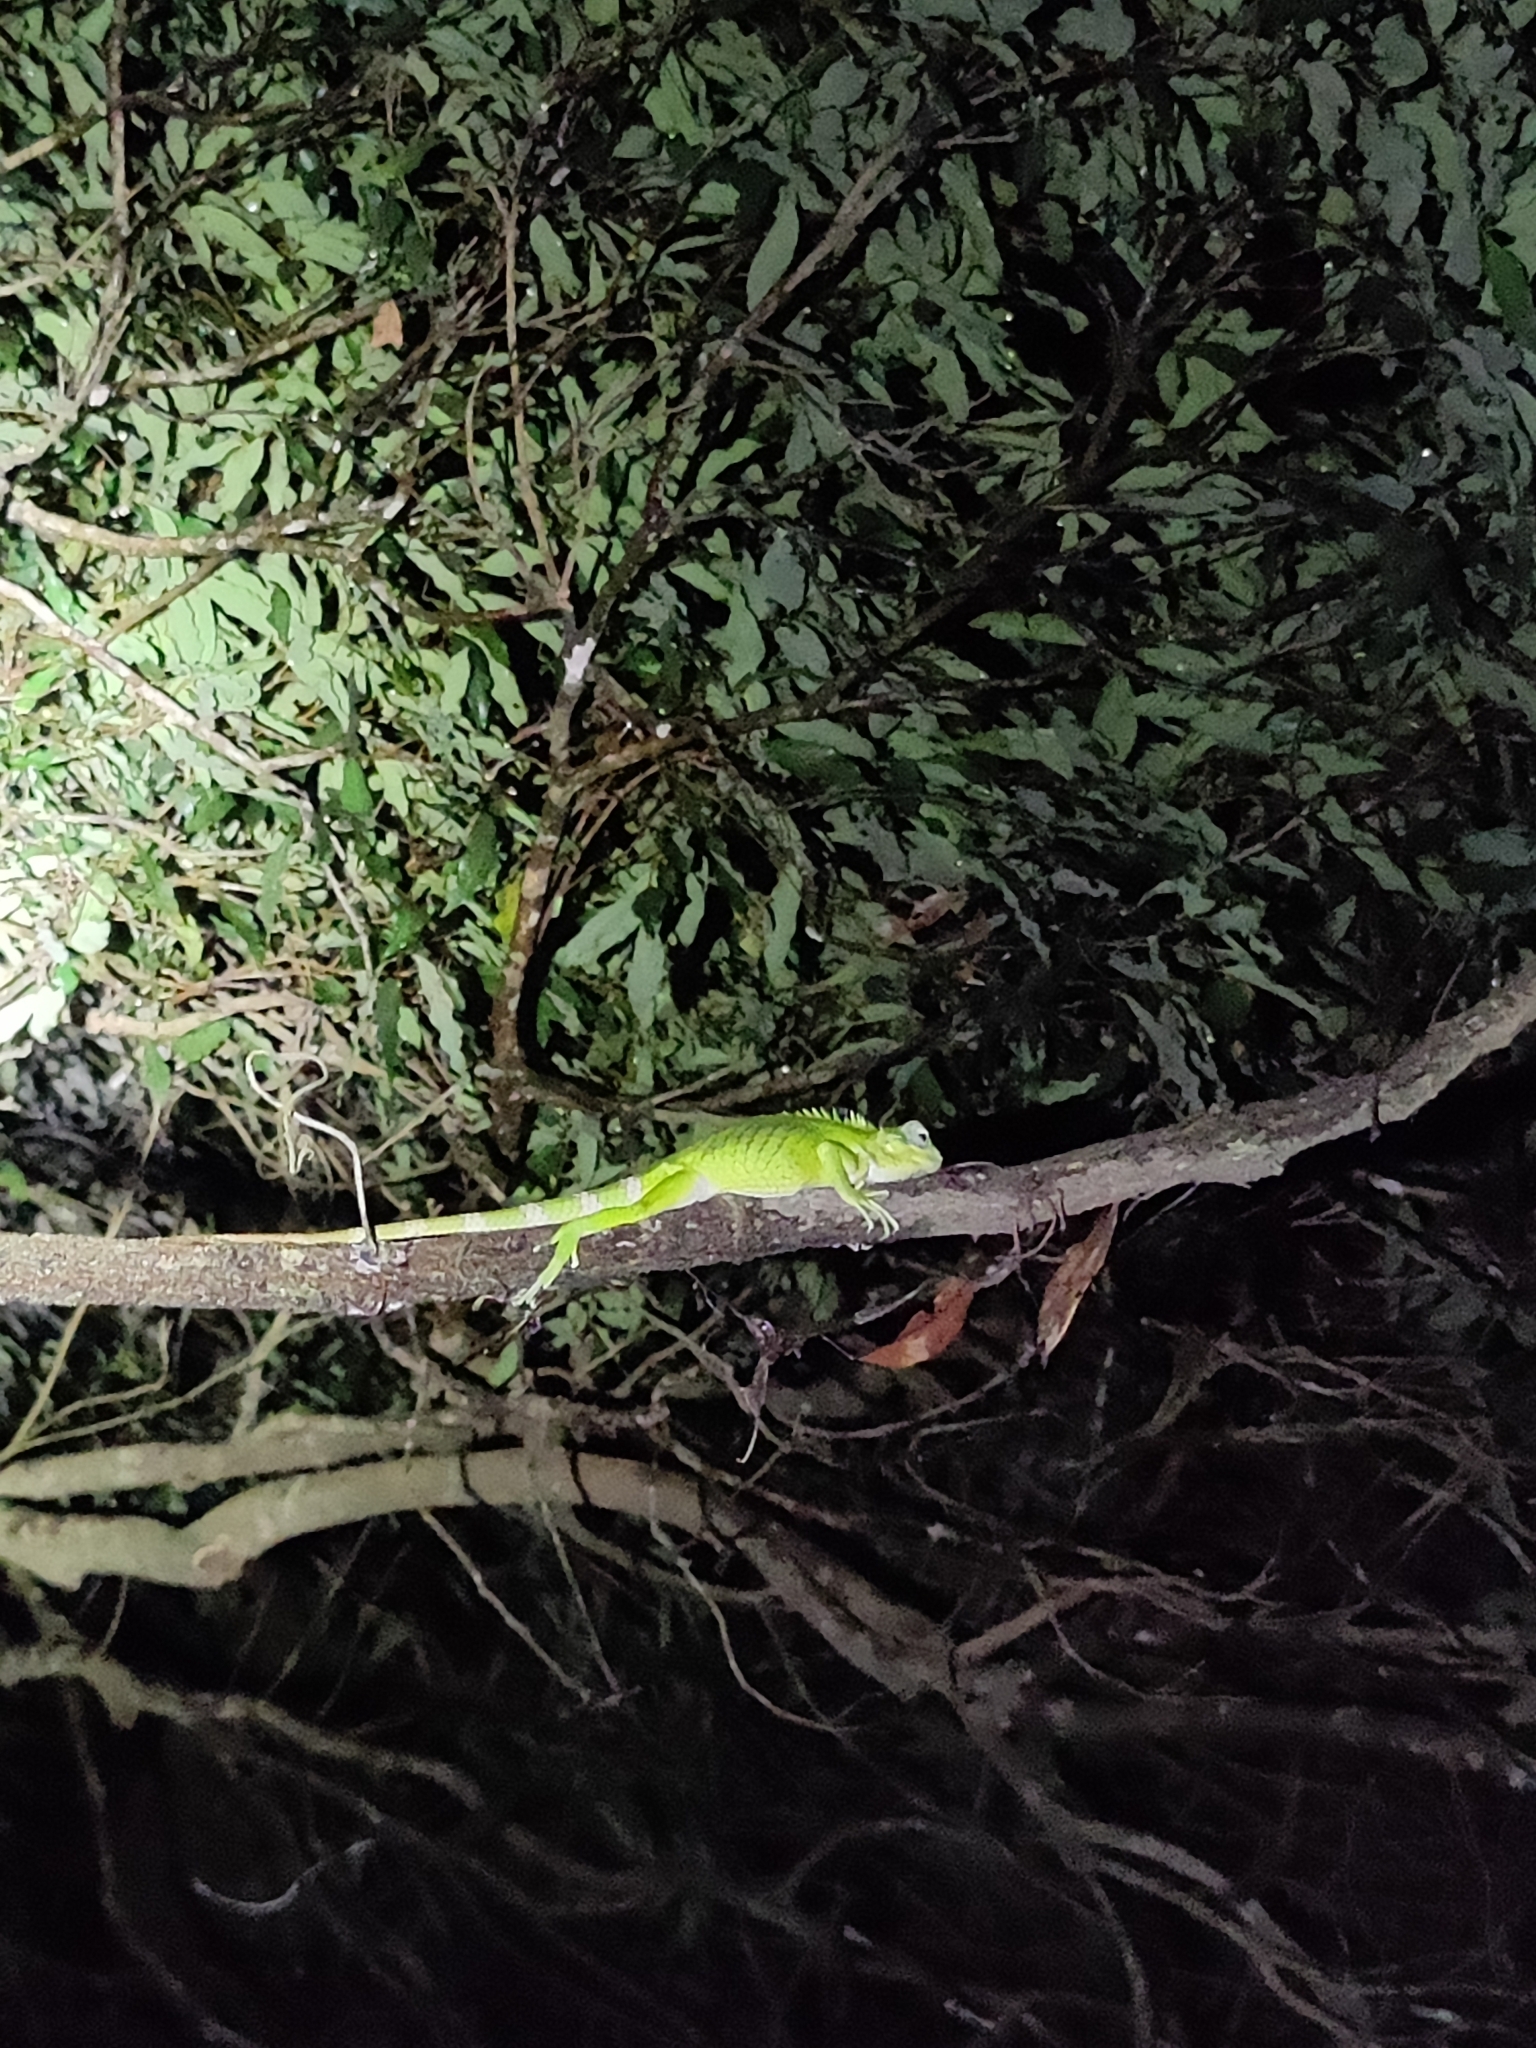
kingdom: Animalia
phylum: Chordata
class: Squamata
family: Agamidae
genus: Calotes
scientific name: Calotes grandisquamis
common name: Big scaled variable lizard
